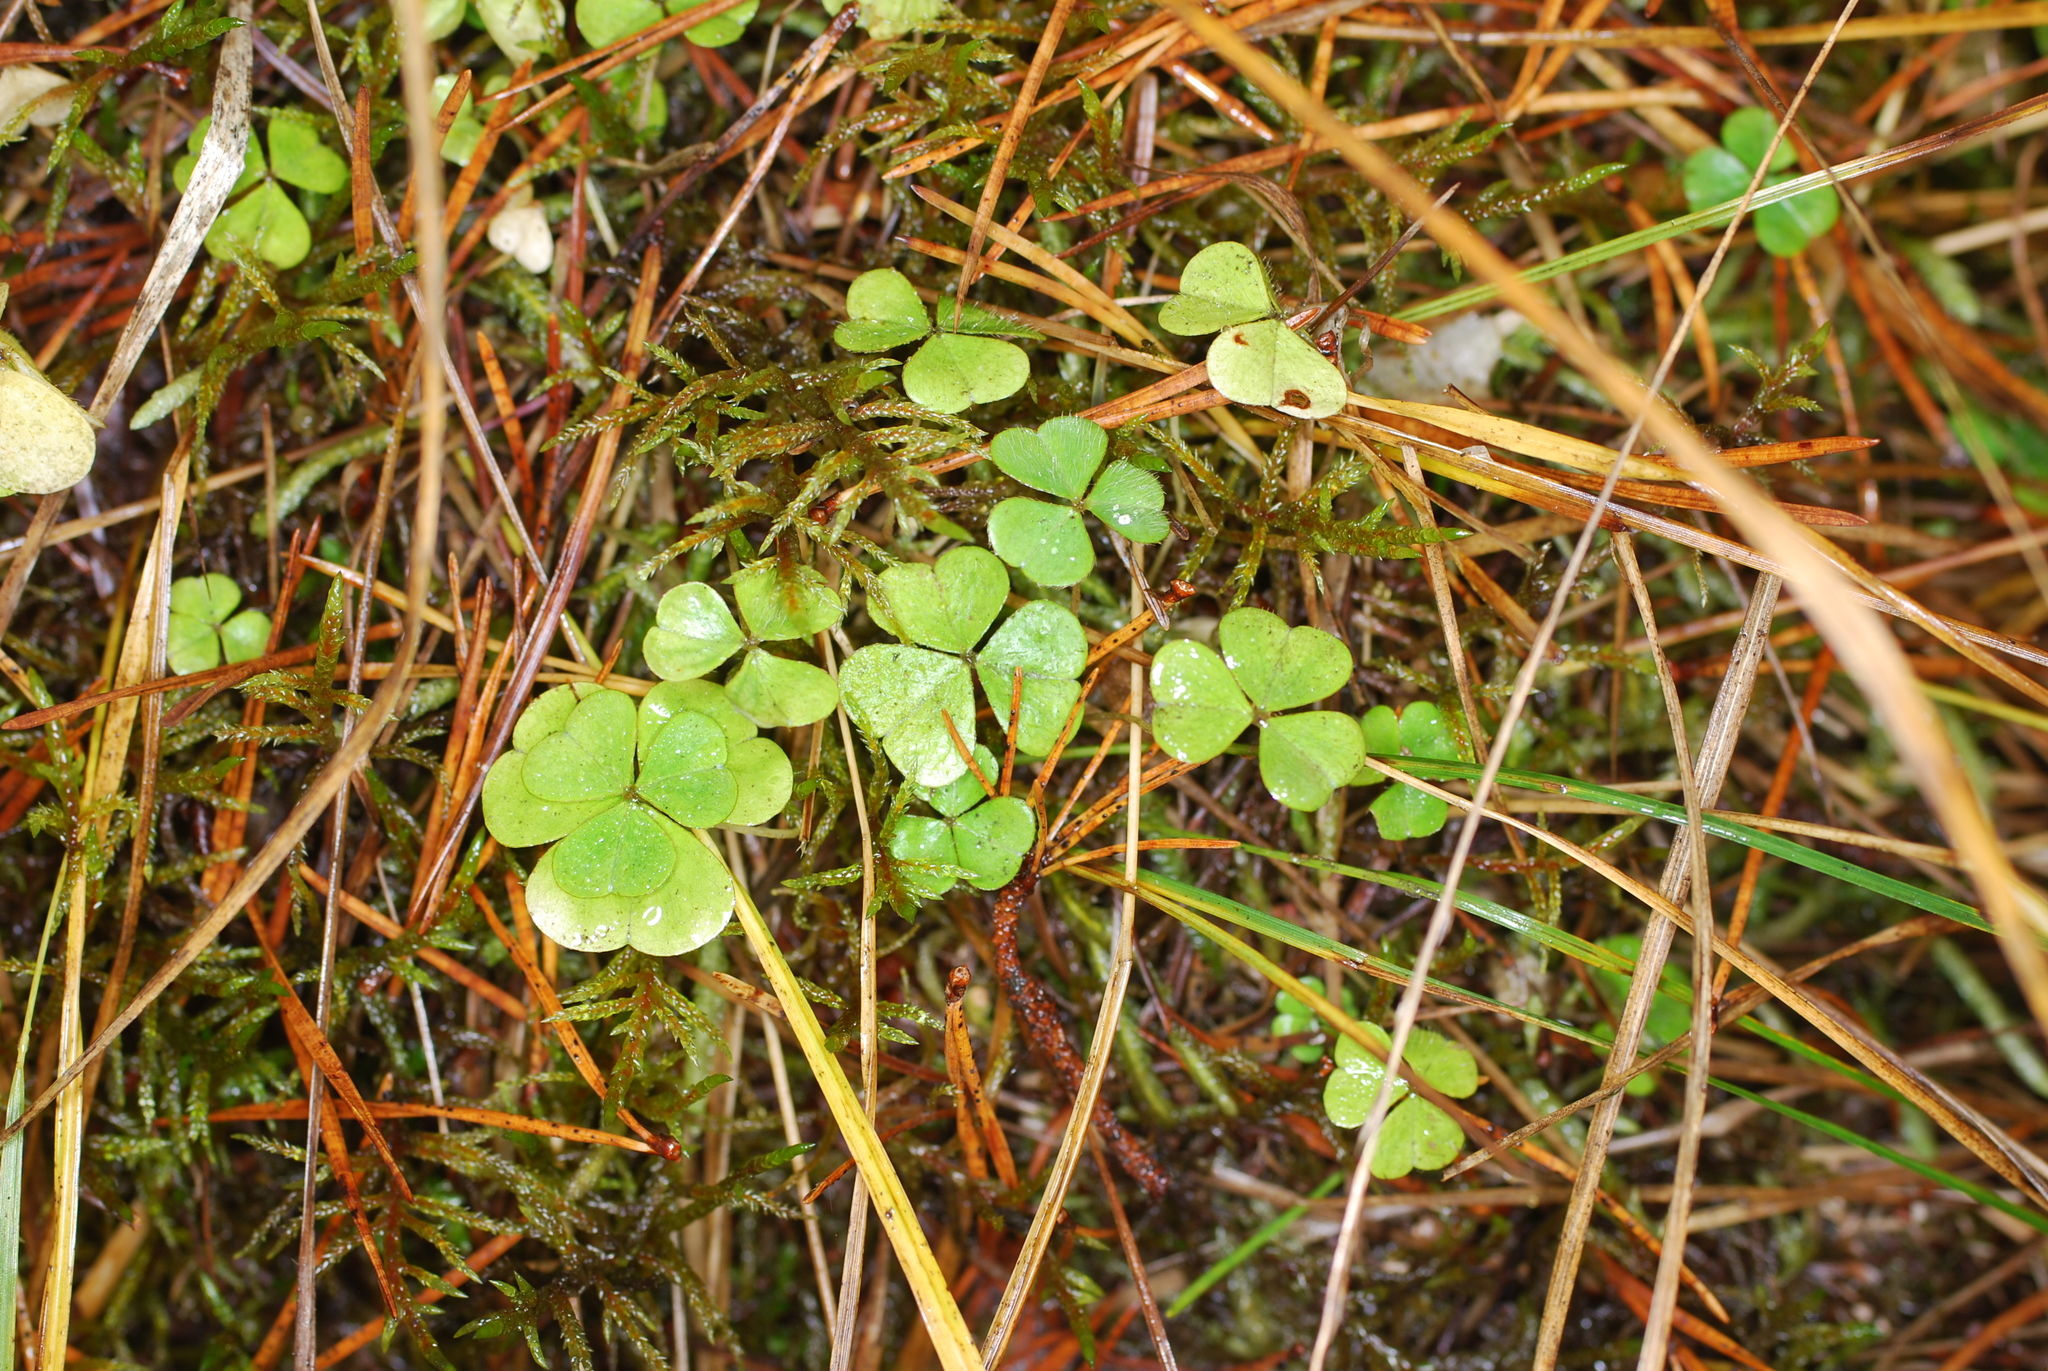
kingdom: Plantae
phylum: Tracheophyta
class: Magnoliopsida
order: Oxalidales
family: Oxalidaceae
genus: Oxalis
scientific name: Oxalis acetosella
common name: Wood-sorrel
